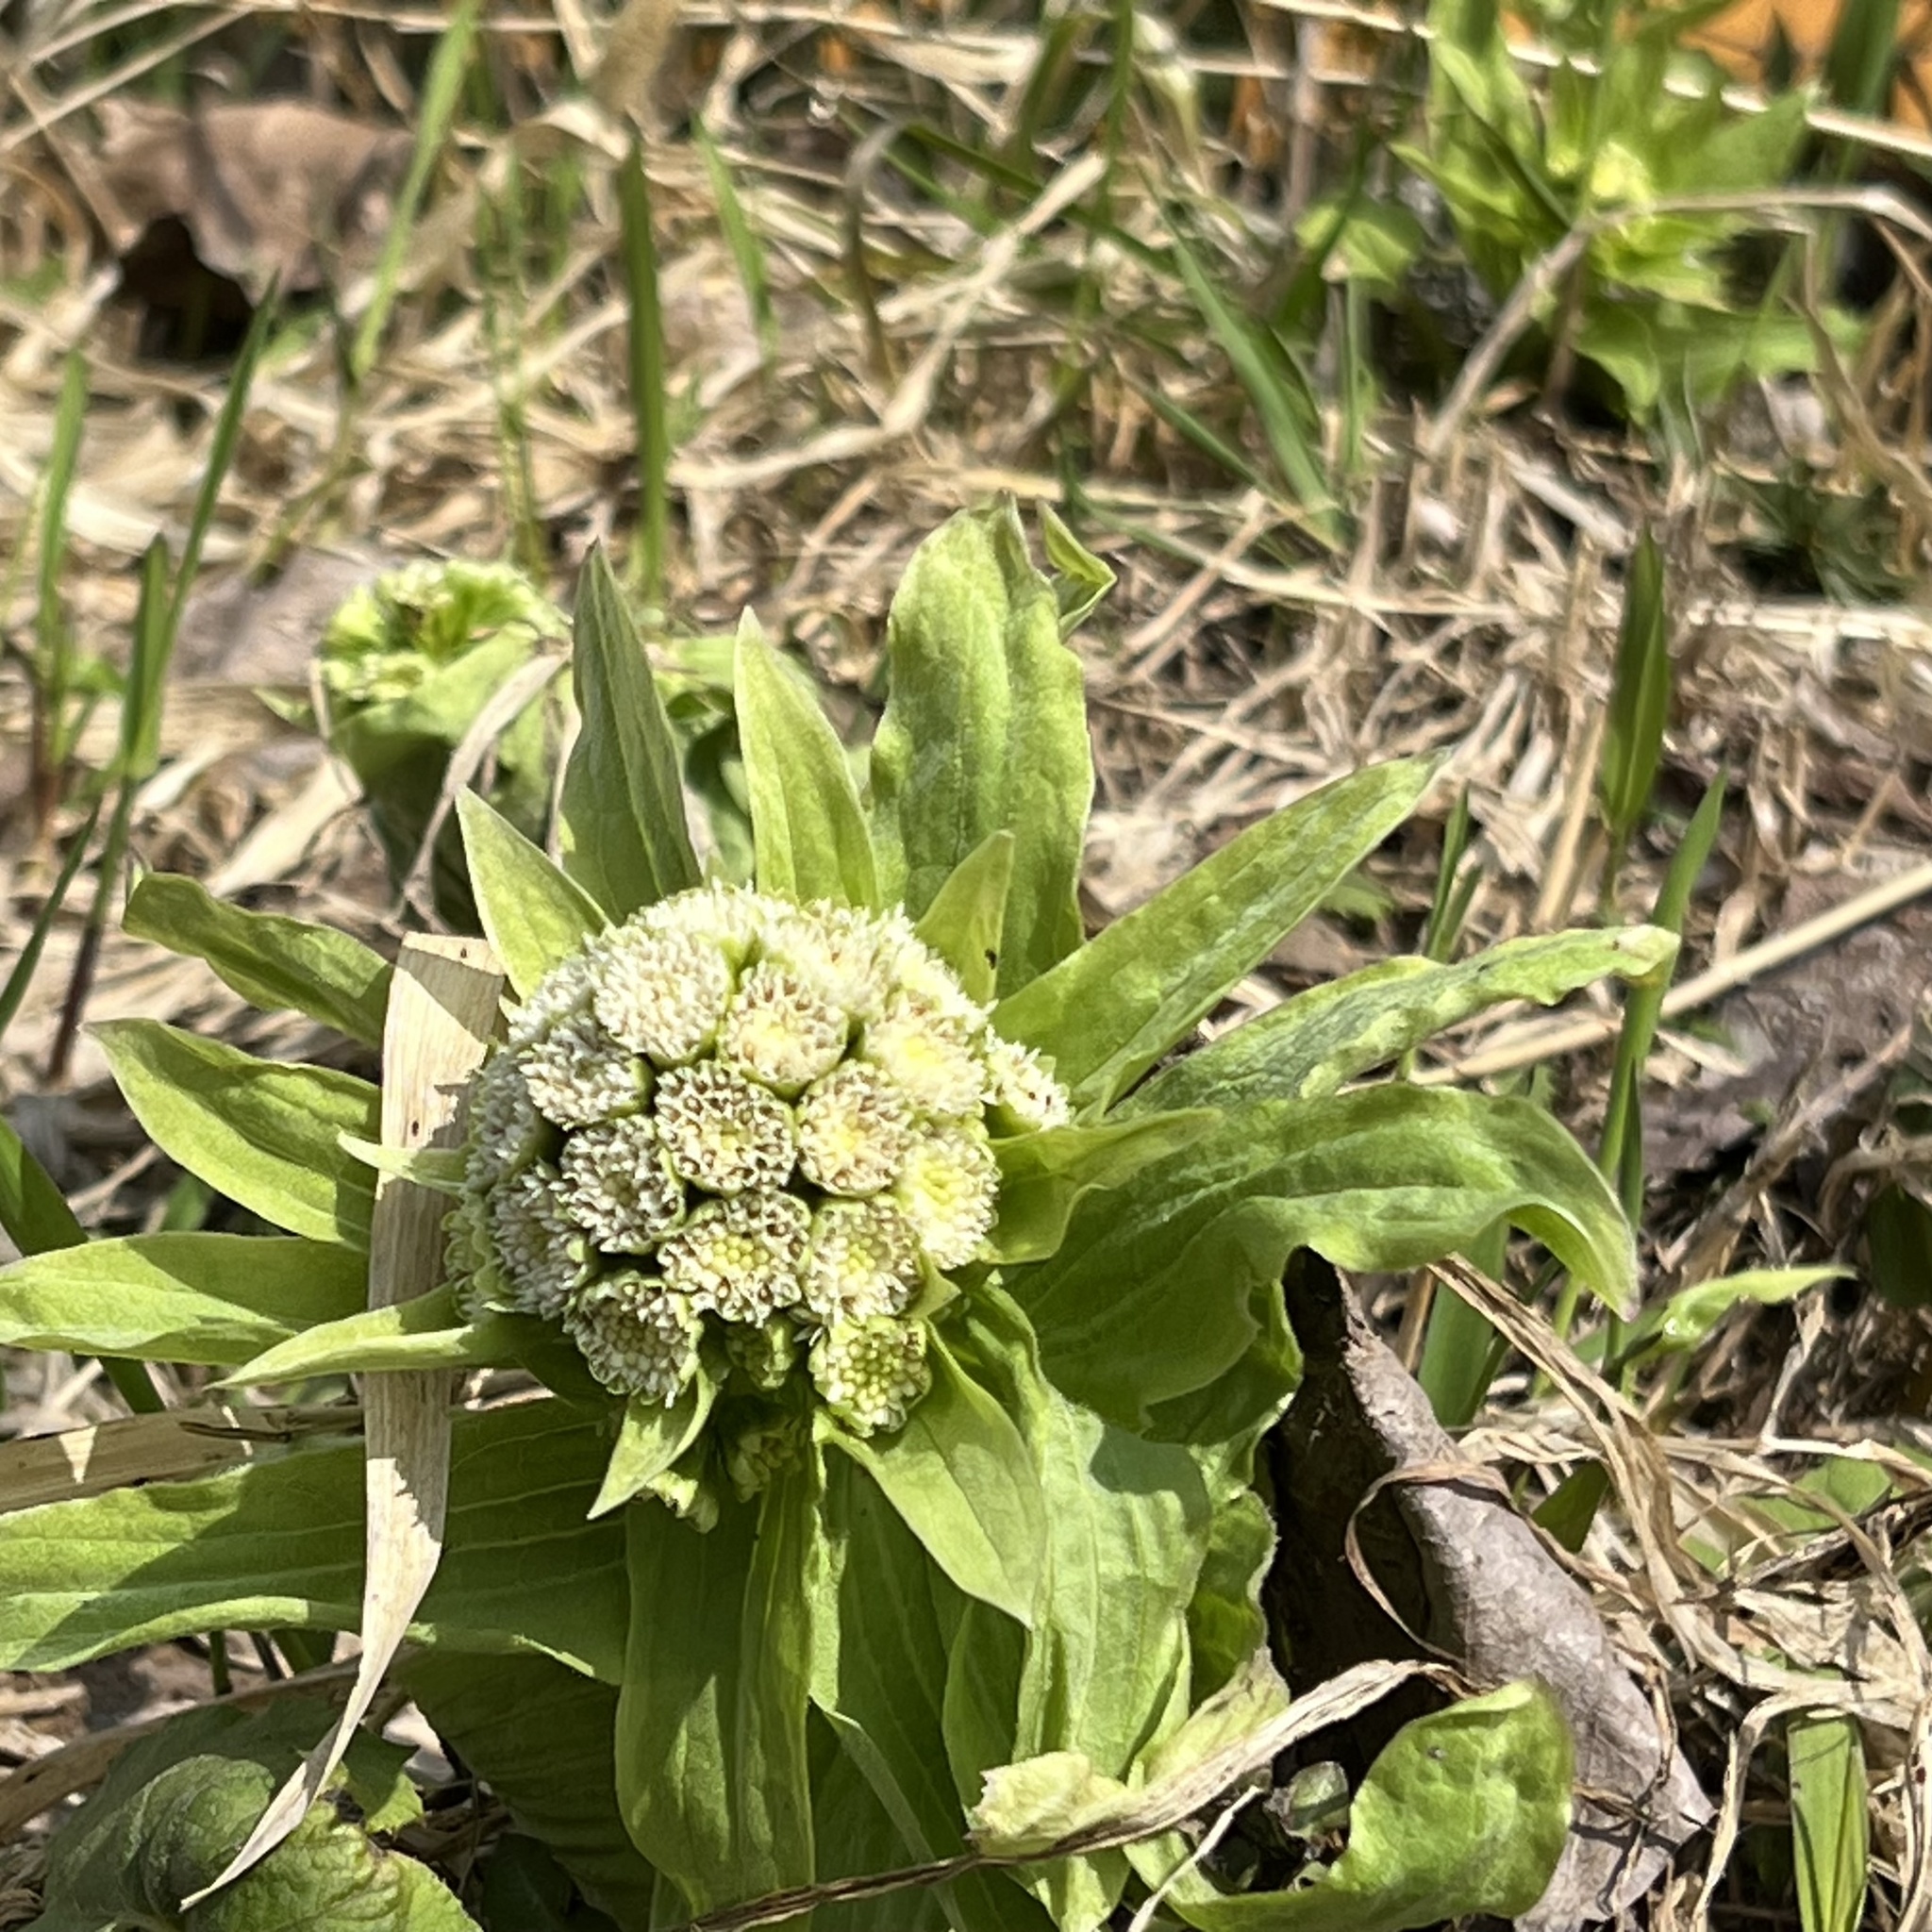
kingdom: Plantae
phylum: Tracheophyta
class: Magnoliopsida
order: Asterales
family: Asteraceae
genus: Petasites
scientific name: Petasites japonicus
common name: Giant butterbur
